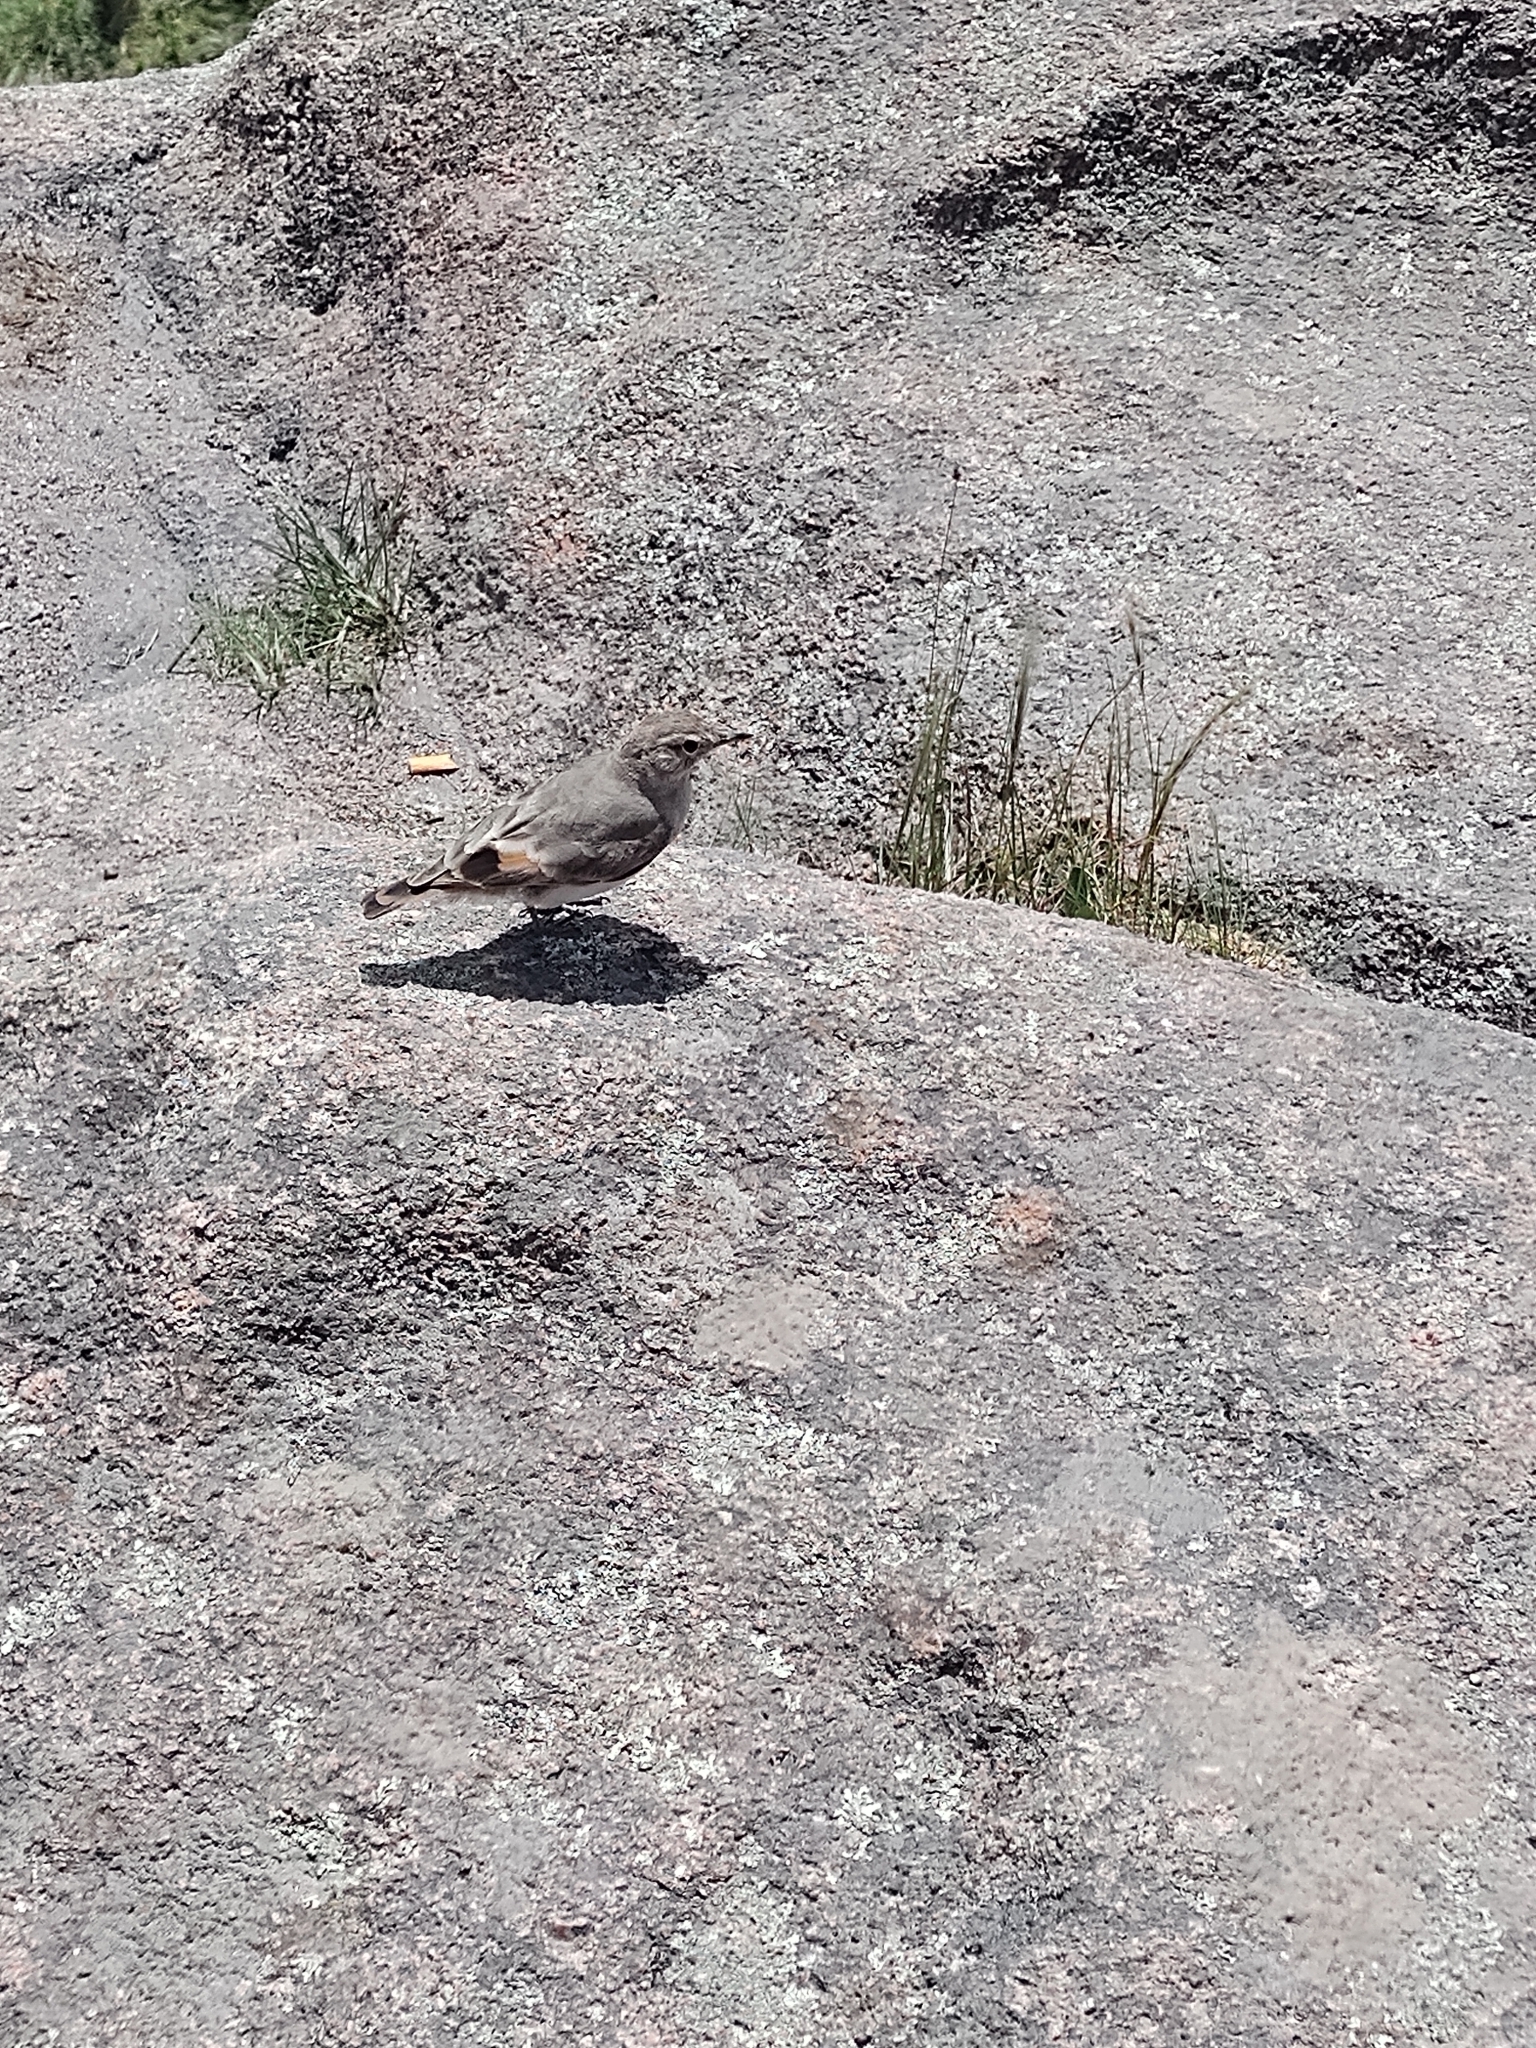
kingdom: Animalia
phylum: Chordata
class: Aves
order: Passeriformes
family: Furnariidae
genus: Geositta
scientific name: Geositta rufipennis
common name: Rufous-banded miner
